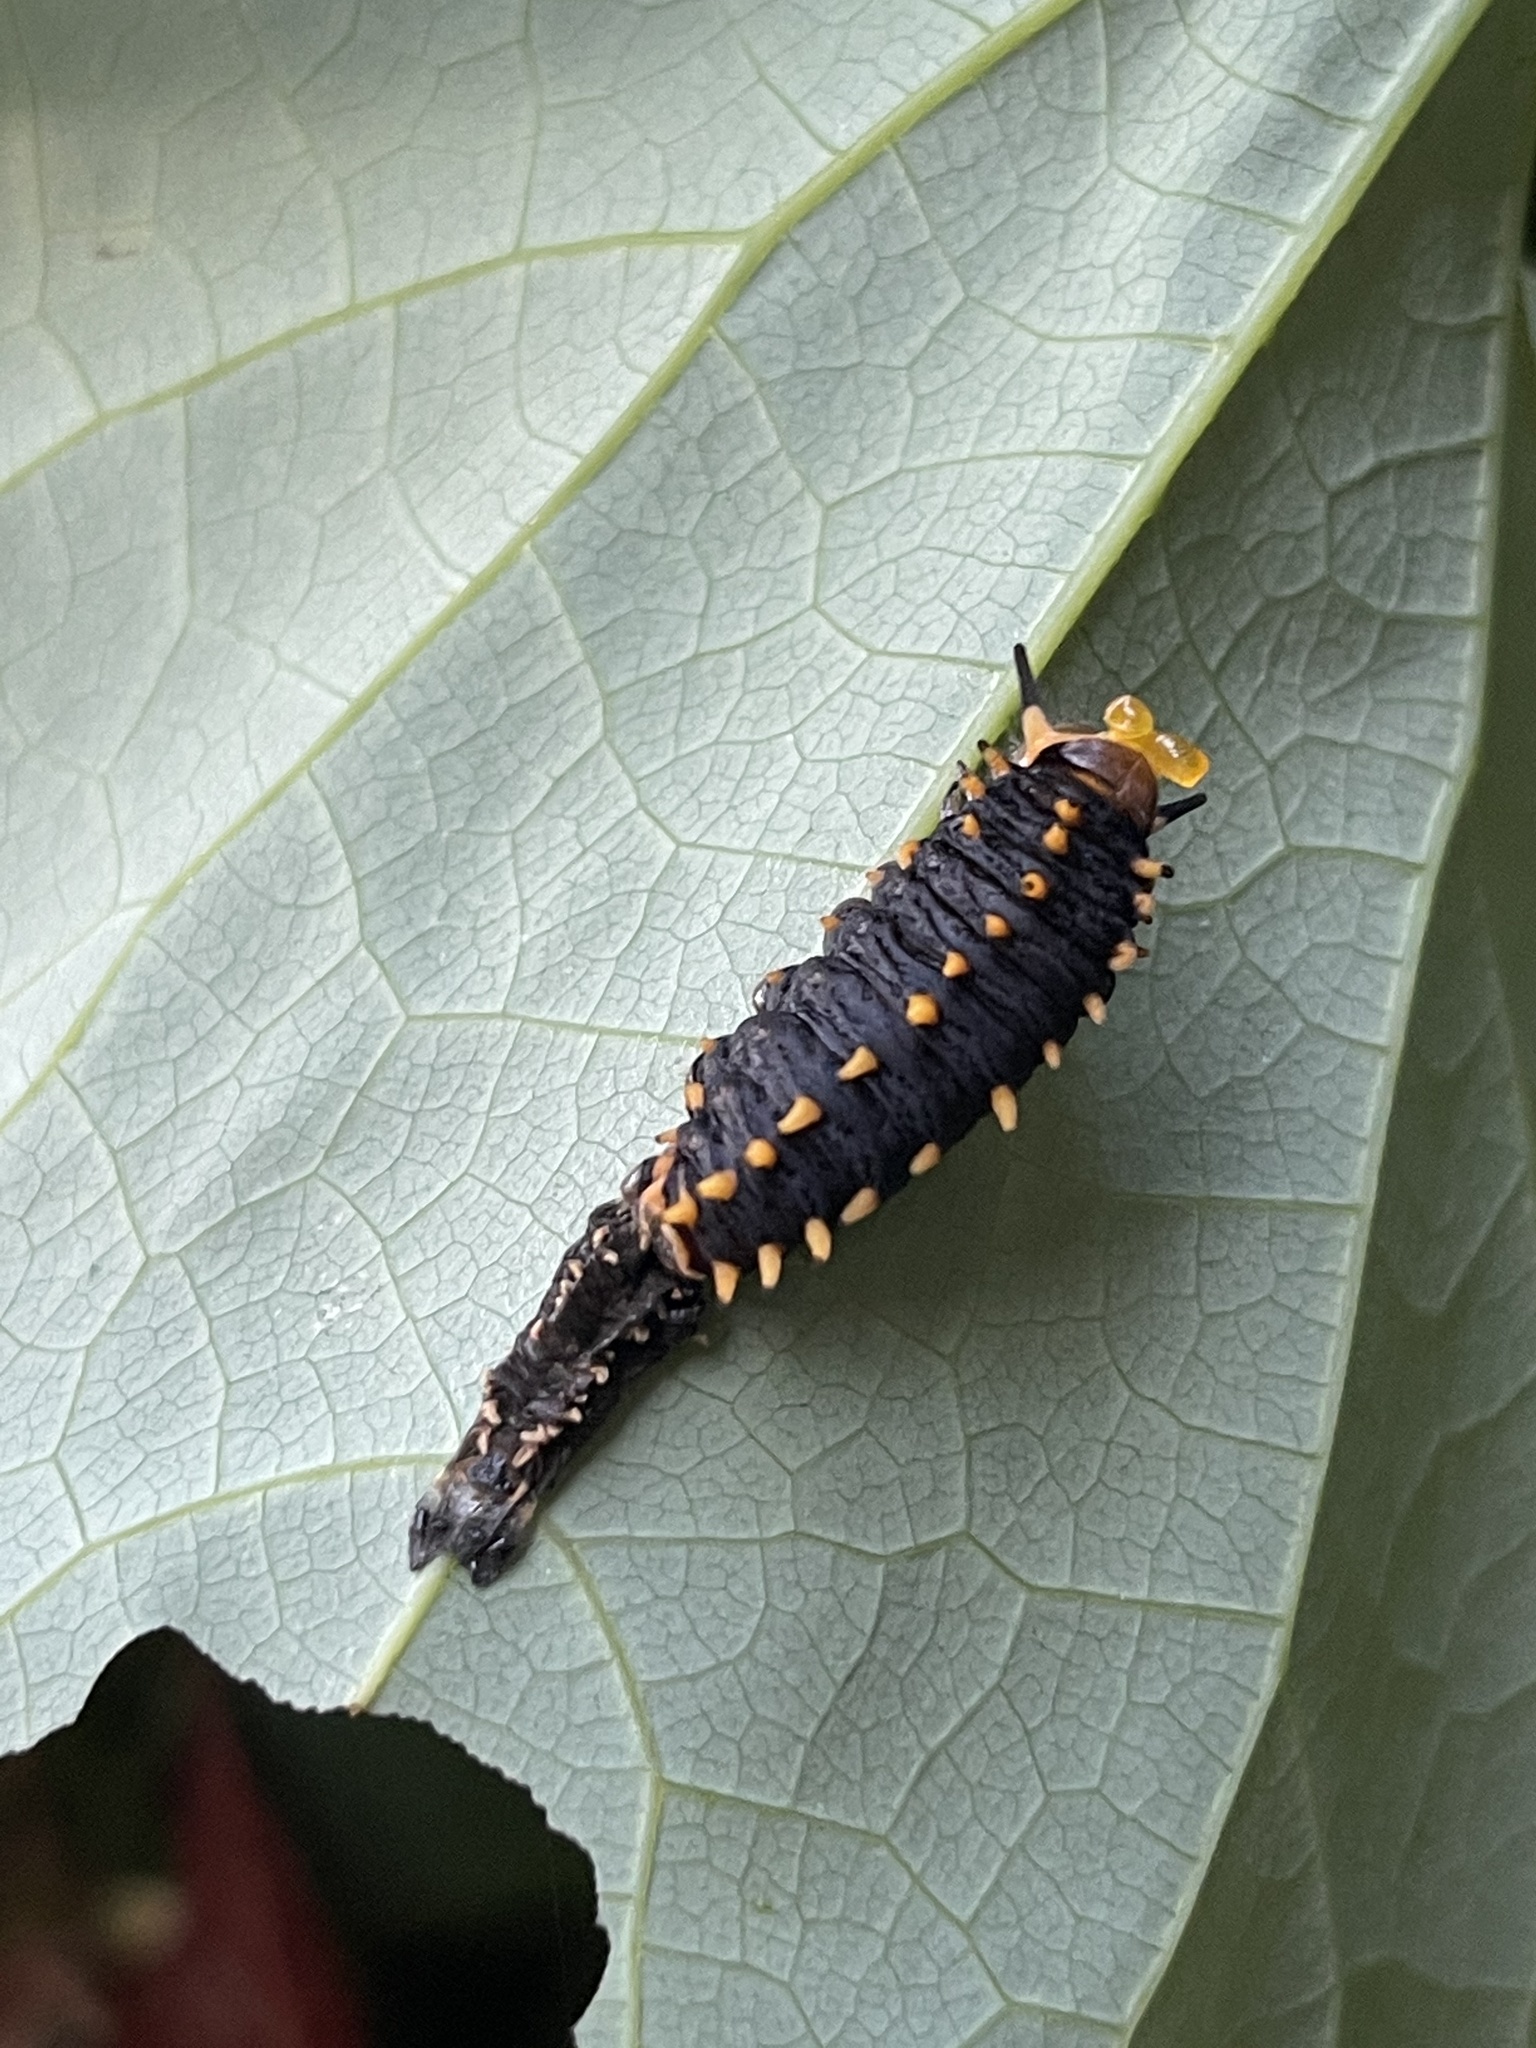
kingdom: Animalia
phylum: Arthropoda
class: Insecta
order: Lepidoptera
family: Papilionidae
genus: Battus
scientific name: Battus polydamas
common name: Polydamas swallowtail
